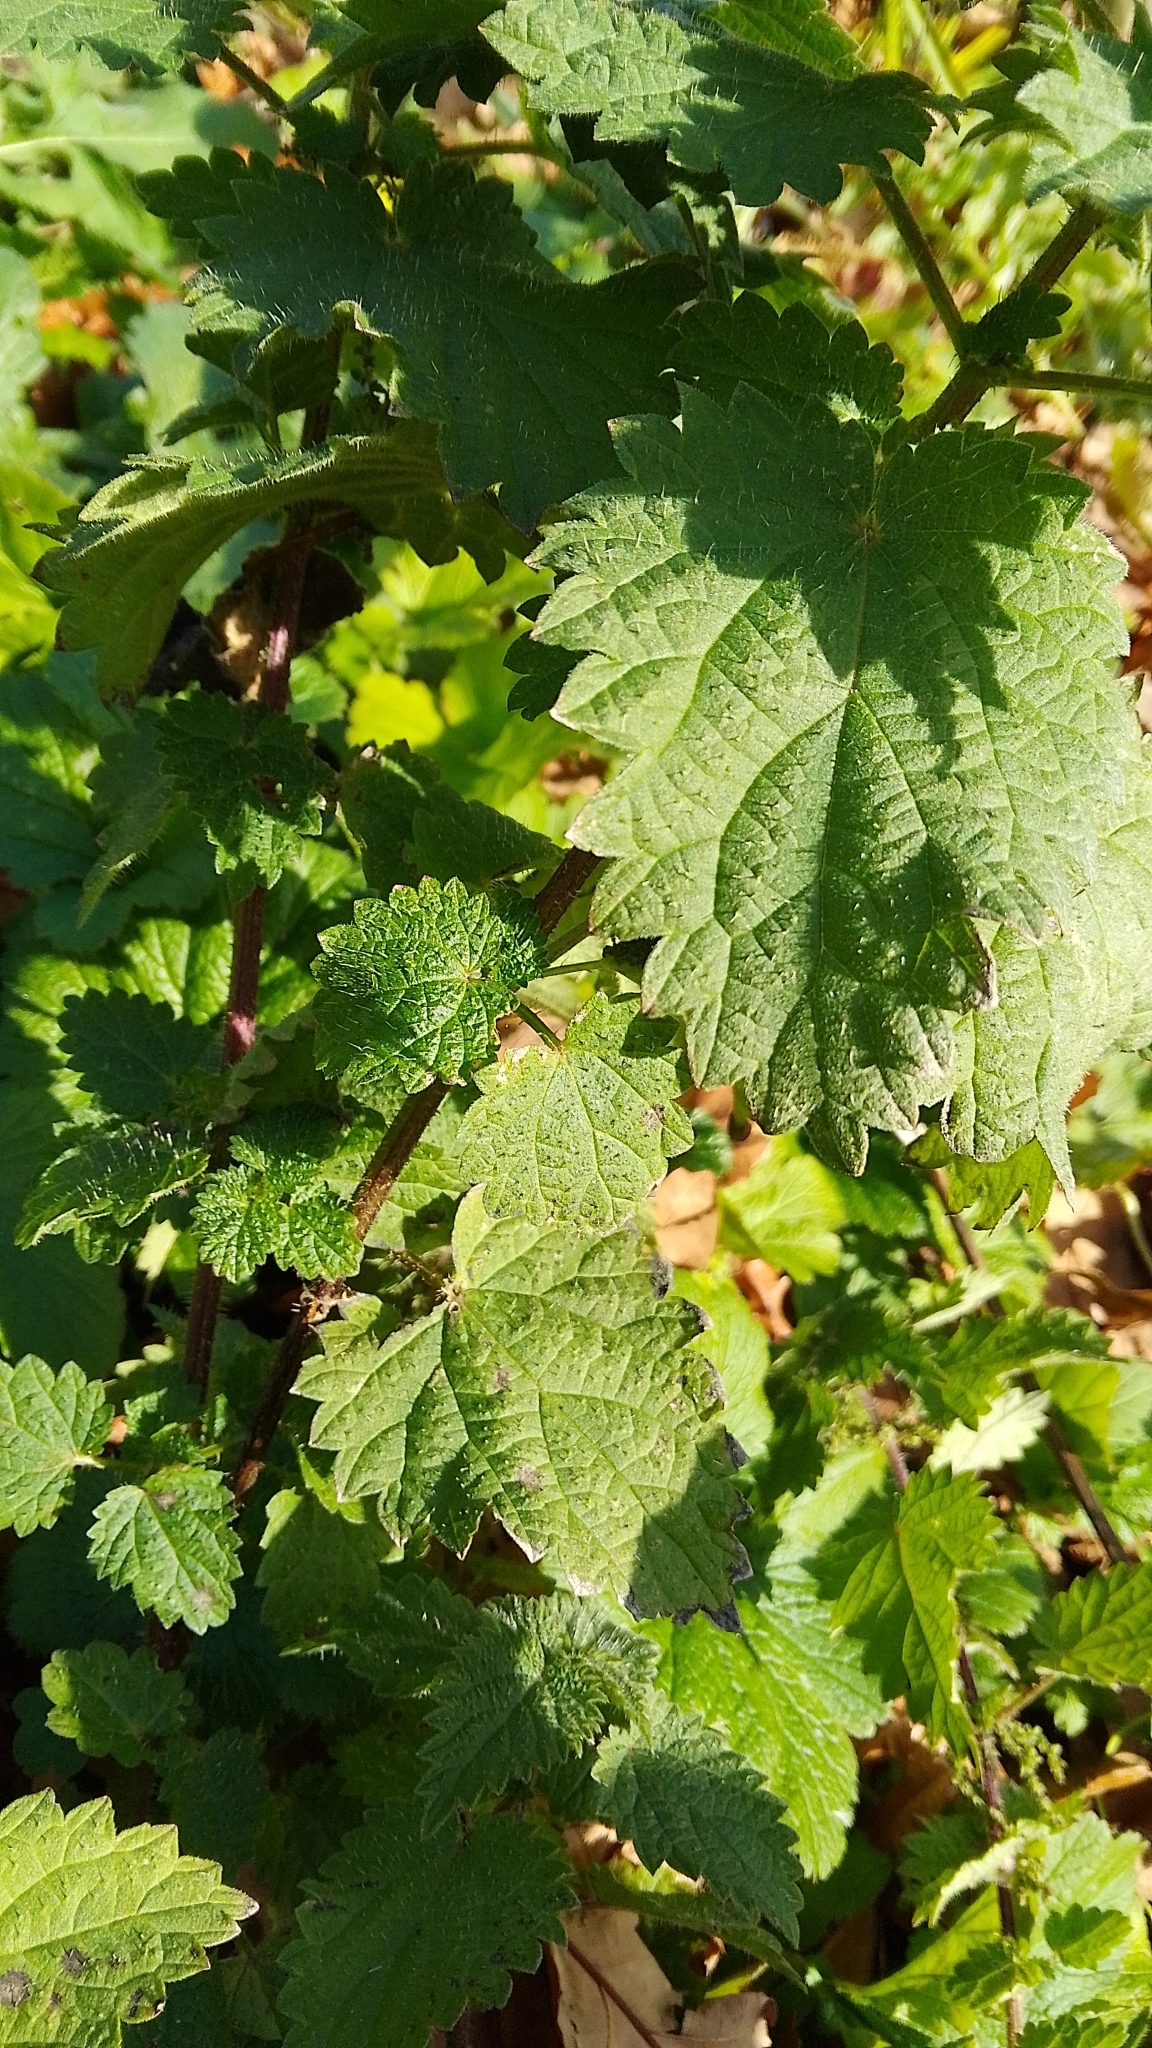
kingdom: Plantae
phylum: Tracheophyta
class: Magnoliopsida
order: Rosales
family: Urticaceae
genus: Urtica
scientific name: Urtica dioica
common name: Common nettle
